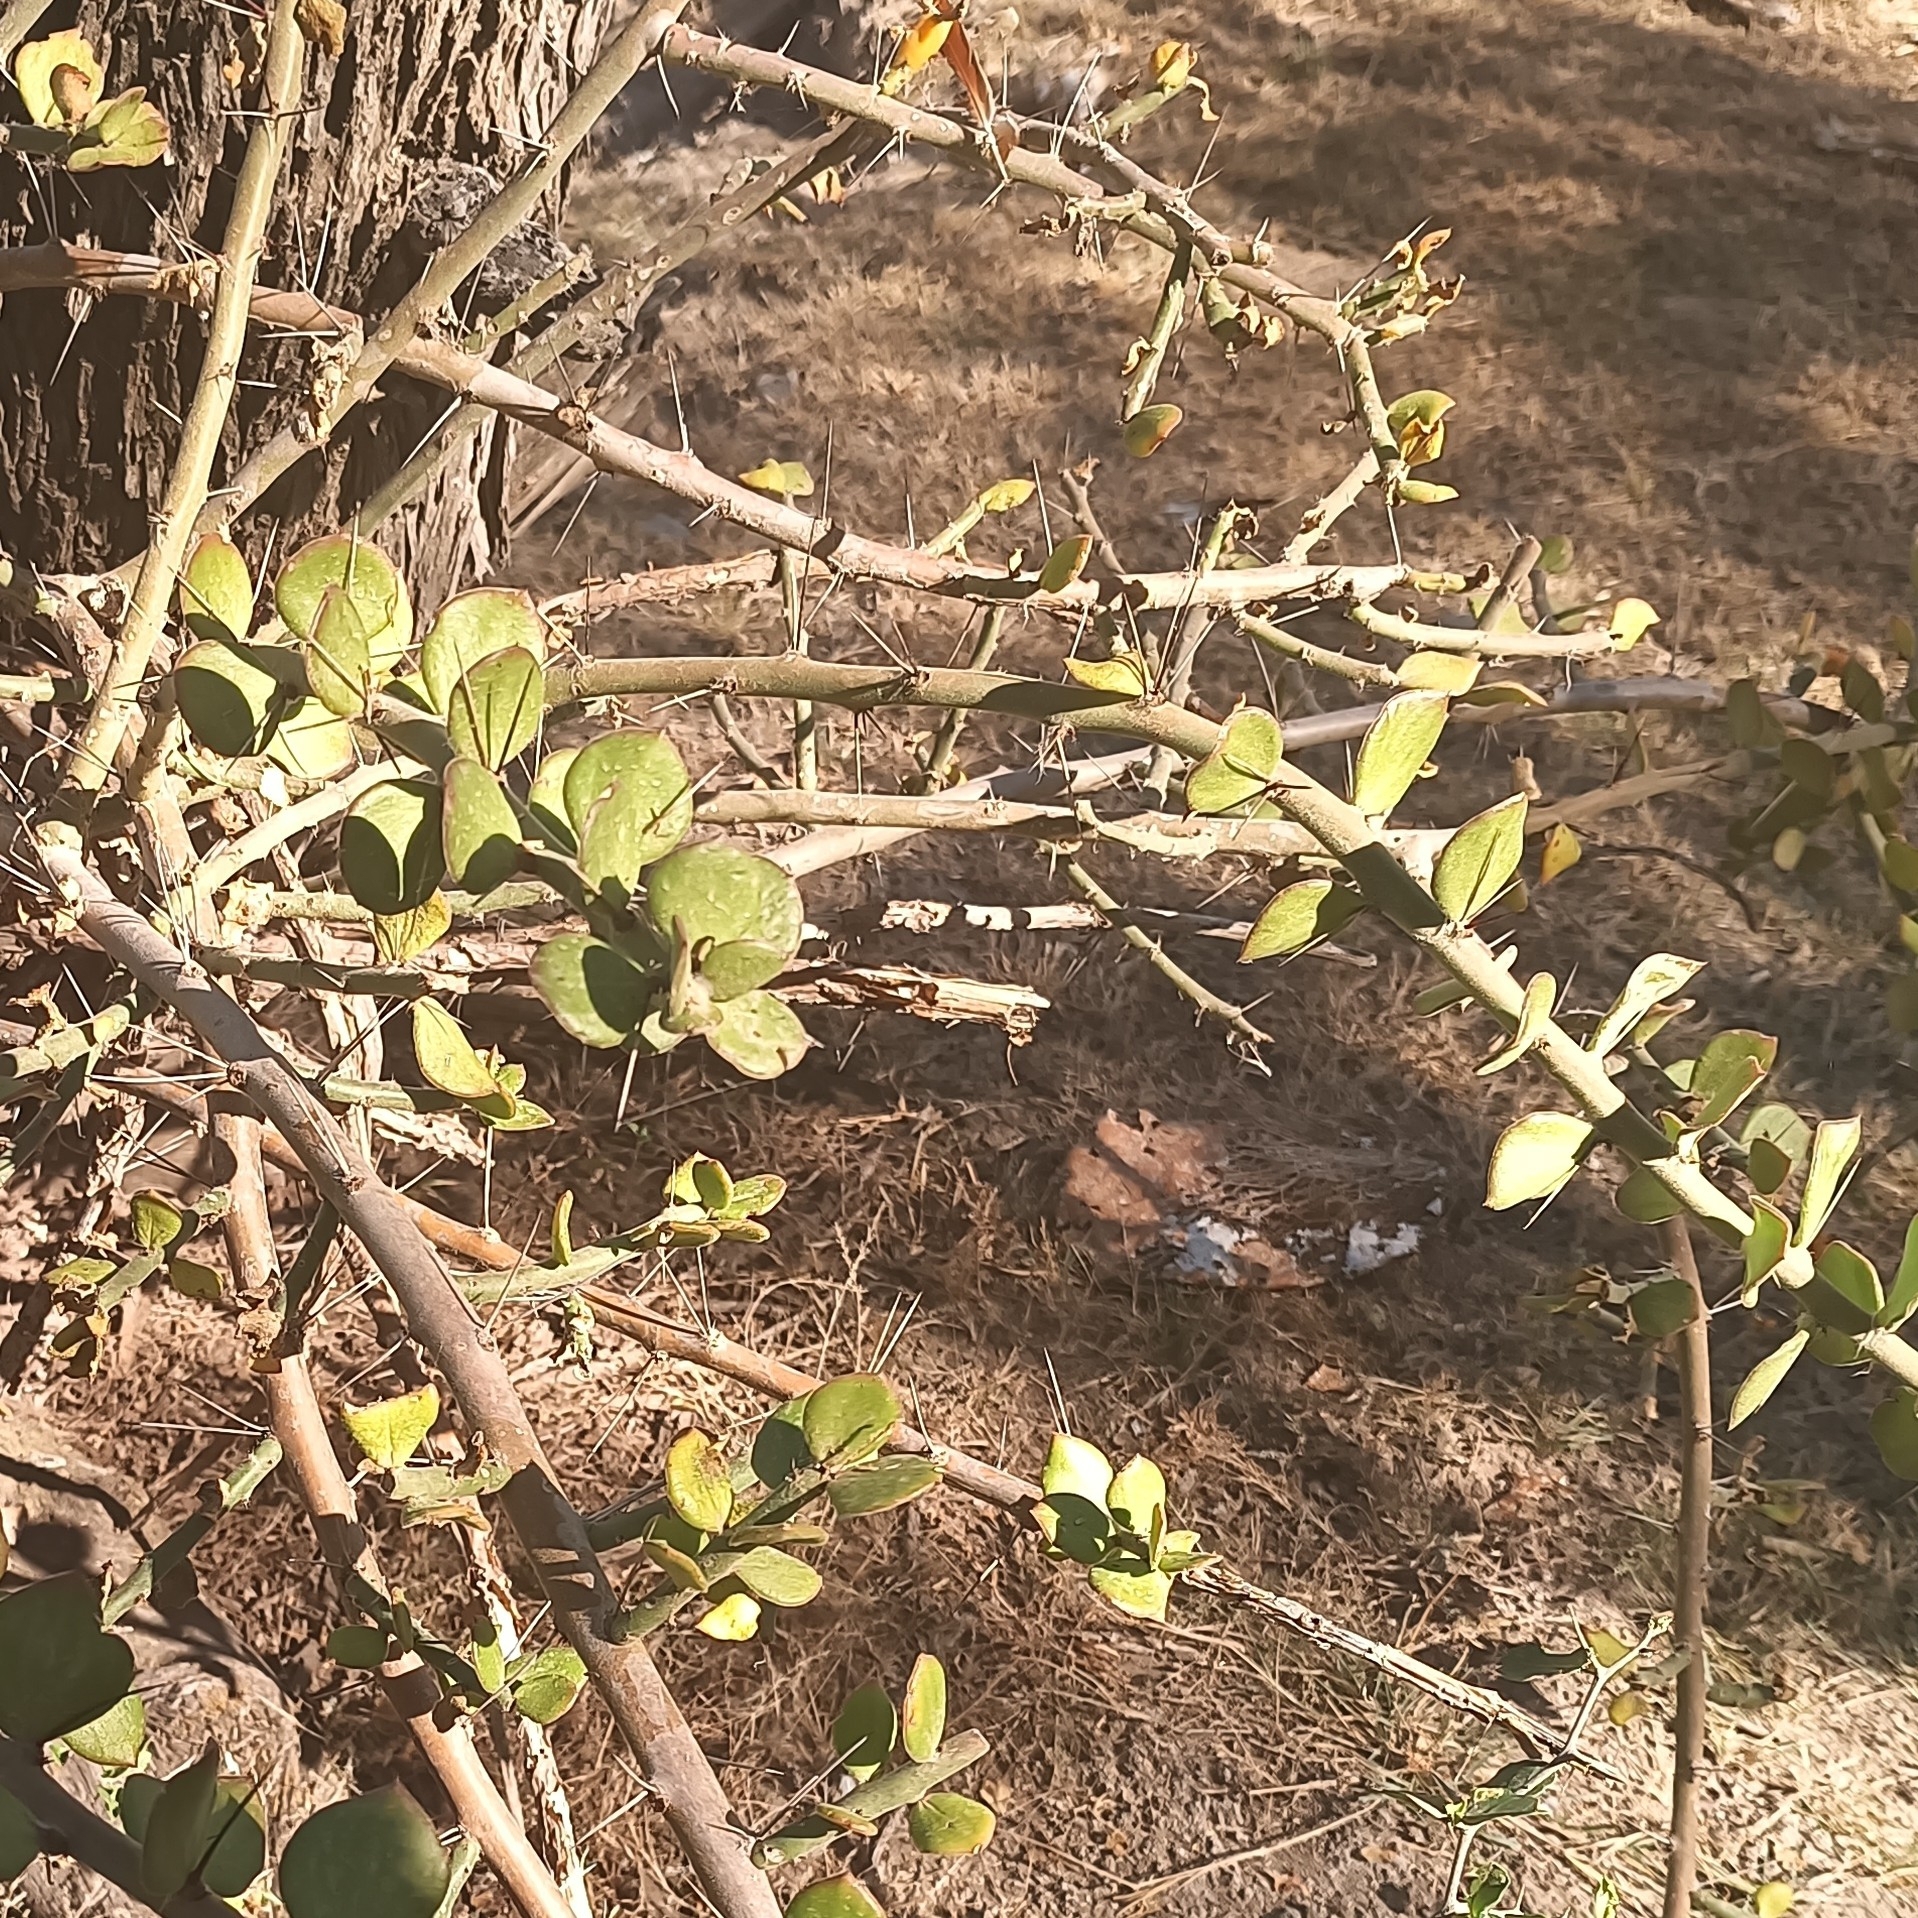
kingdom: Plantae
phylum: Tracheophyta
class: Magnoliopsida
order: Caryophyllales
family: Cactaceae
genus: Pereskiopsis
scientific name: Pereskiopsis diguetii
